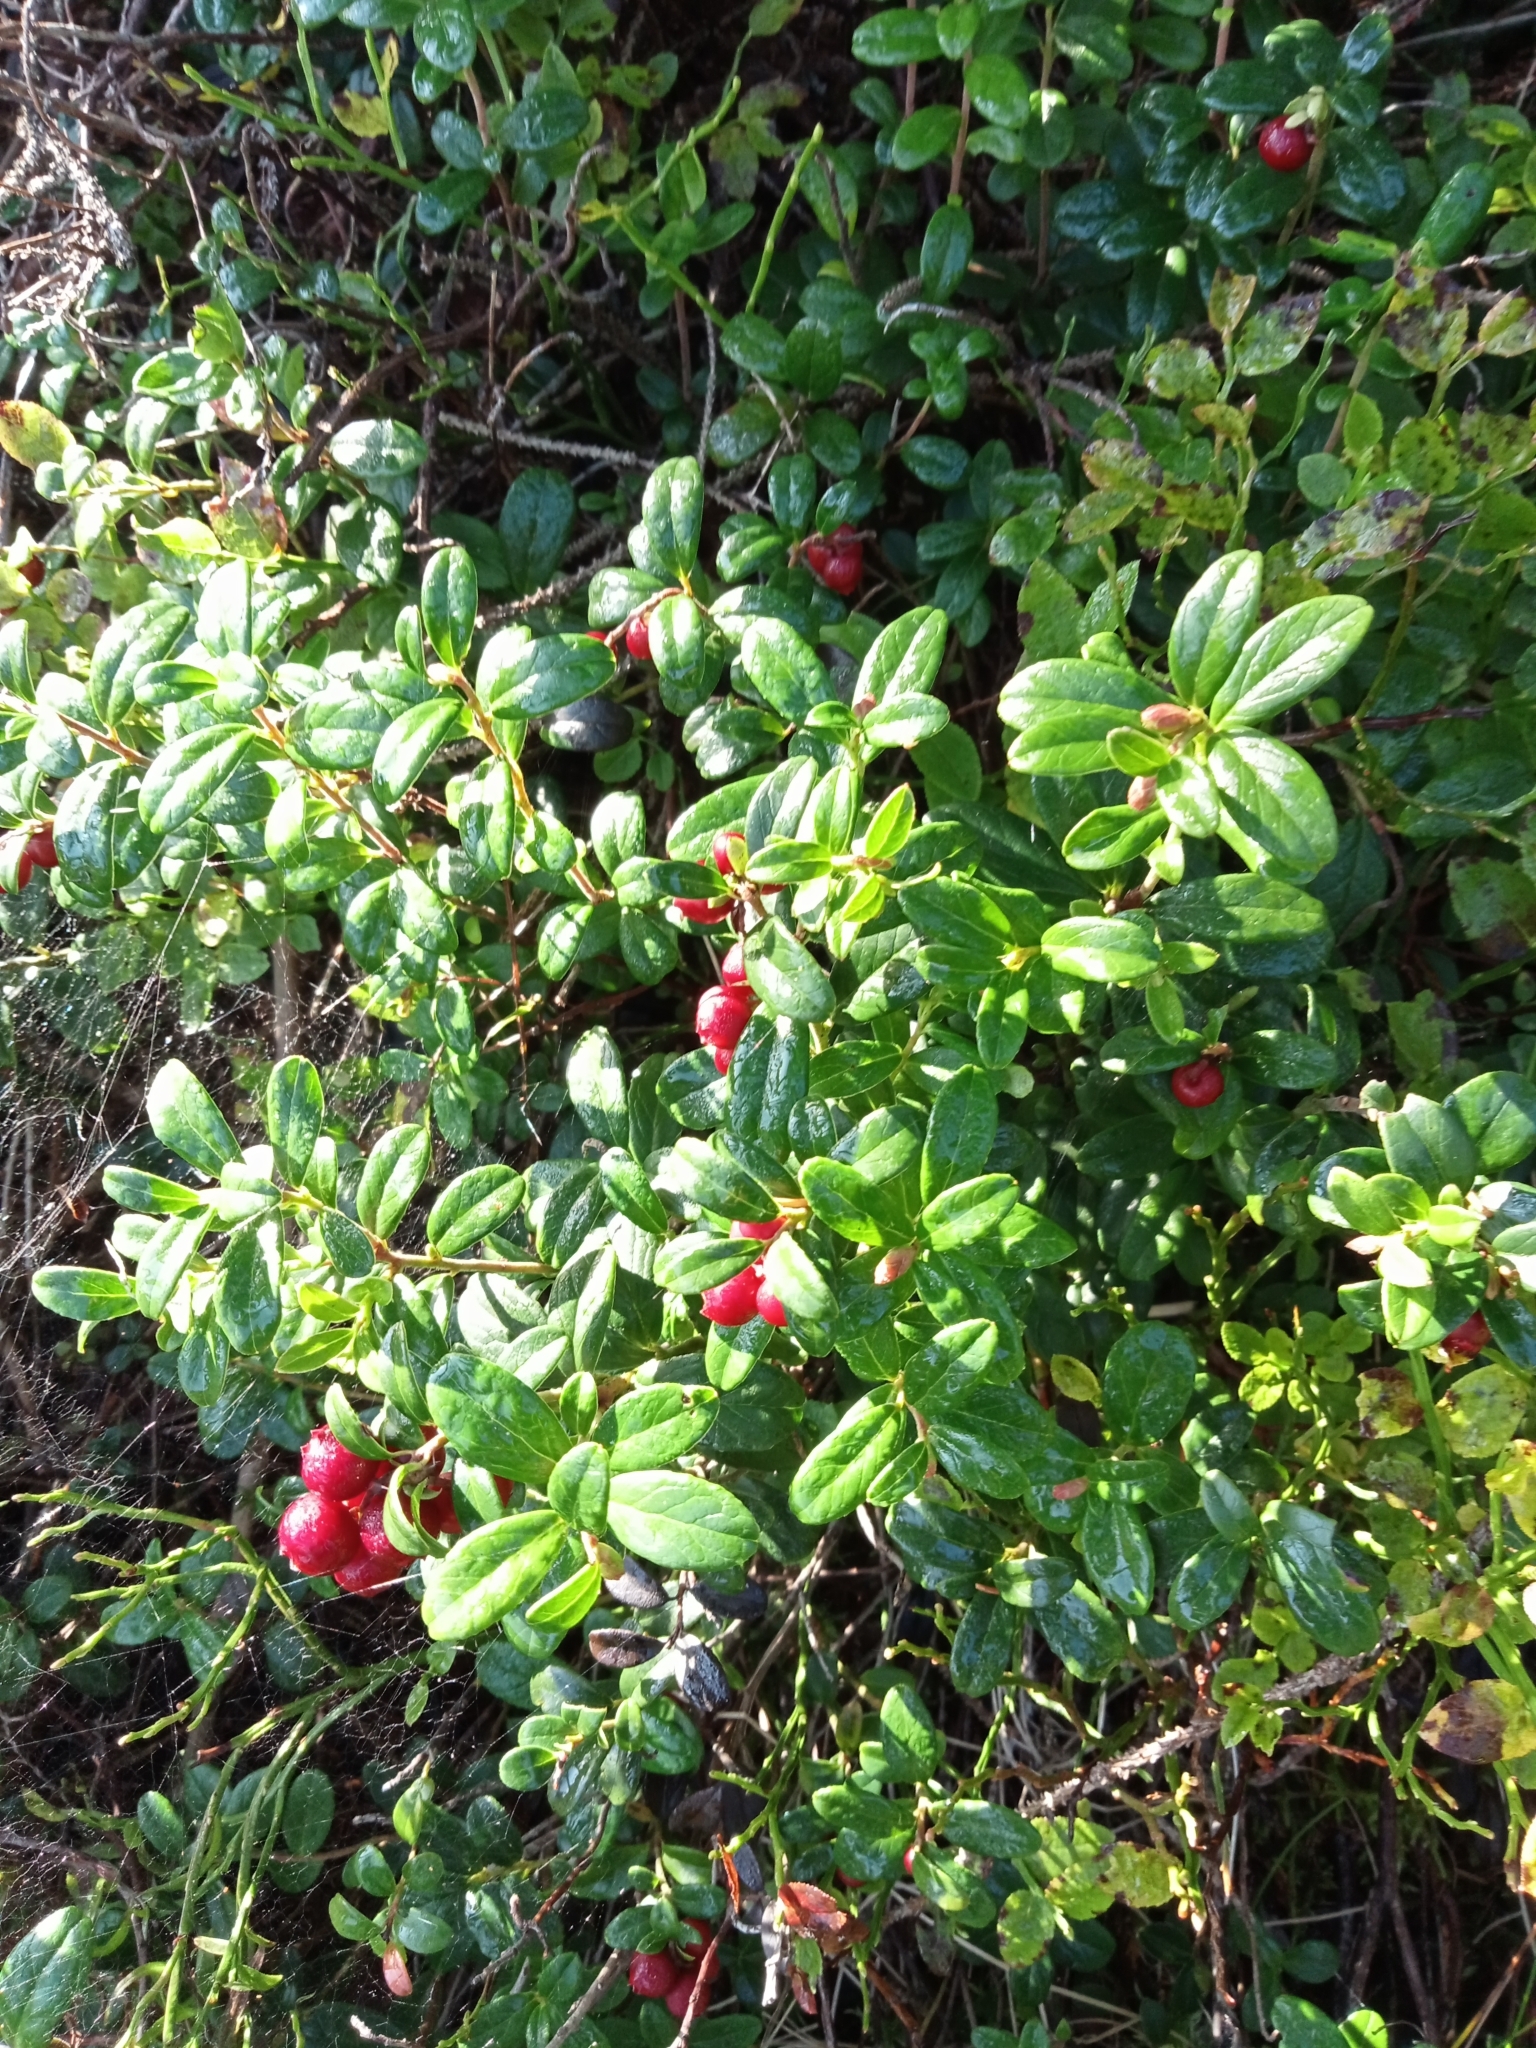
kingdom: Plantae
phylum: Tracheophyta
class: Magnoliopsida
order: Ericales
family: Ericaceae
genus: Vaccinium
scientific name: Vaccinium vitis-idaea
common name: Cowberry
